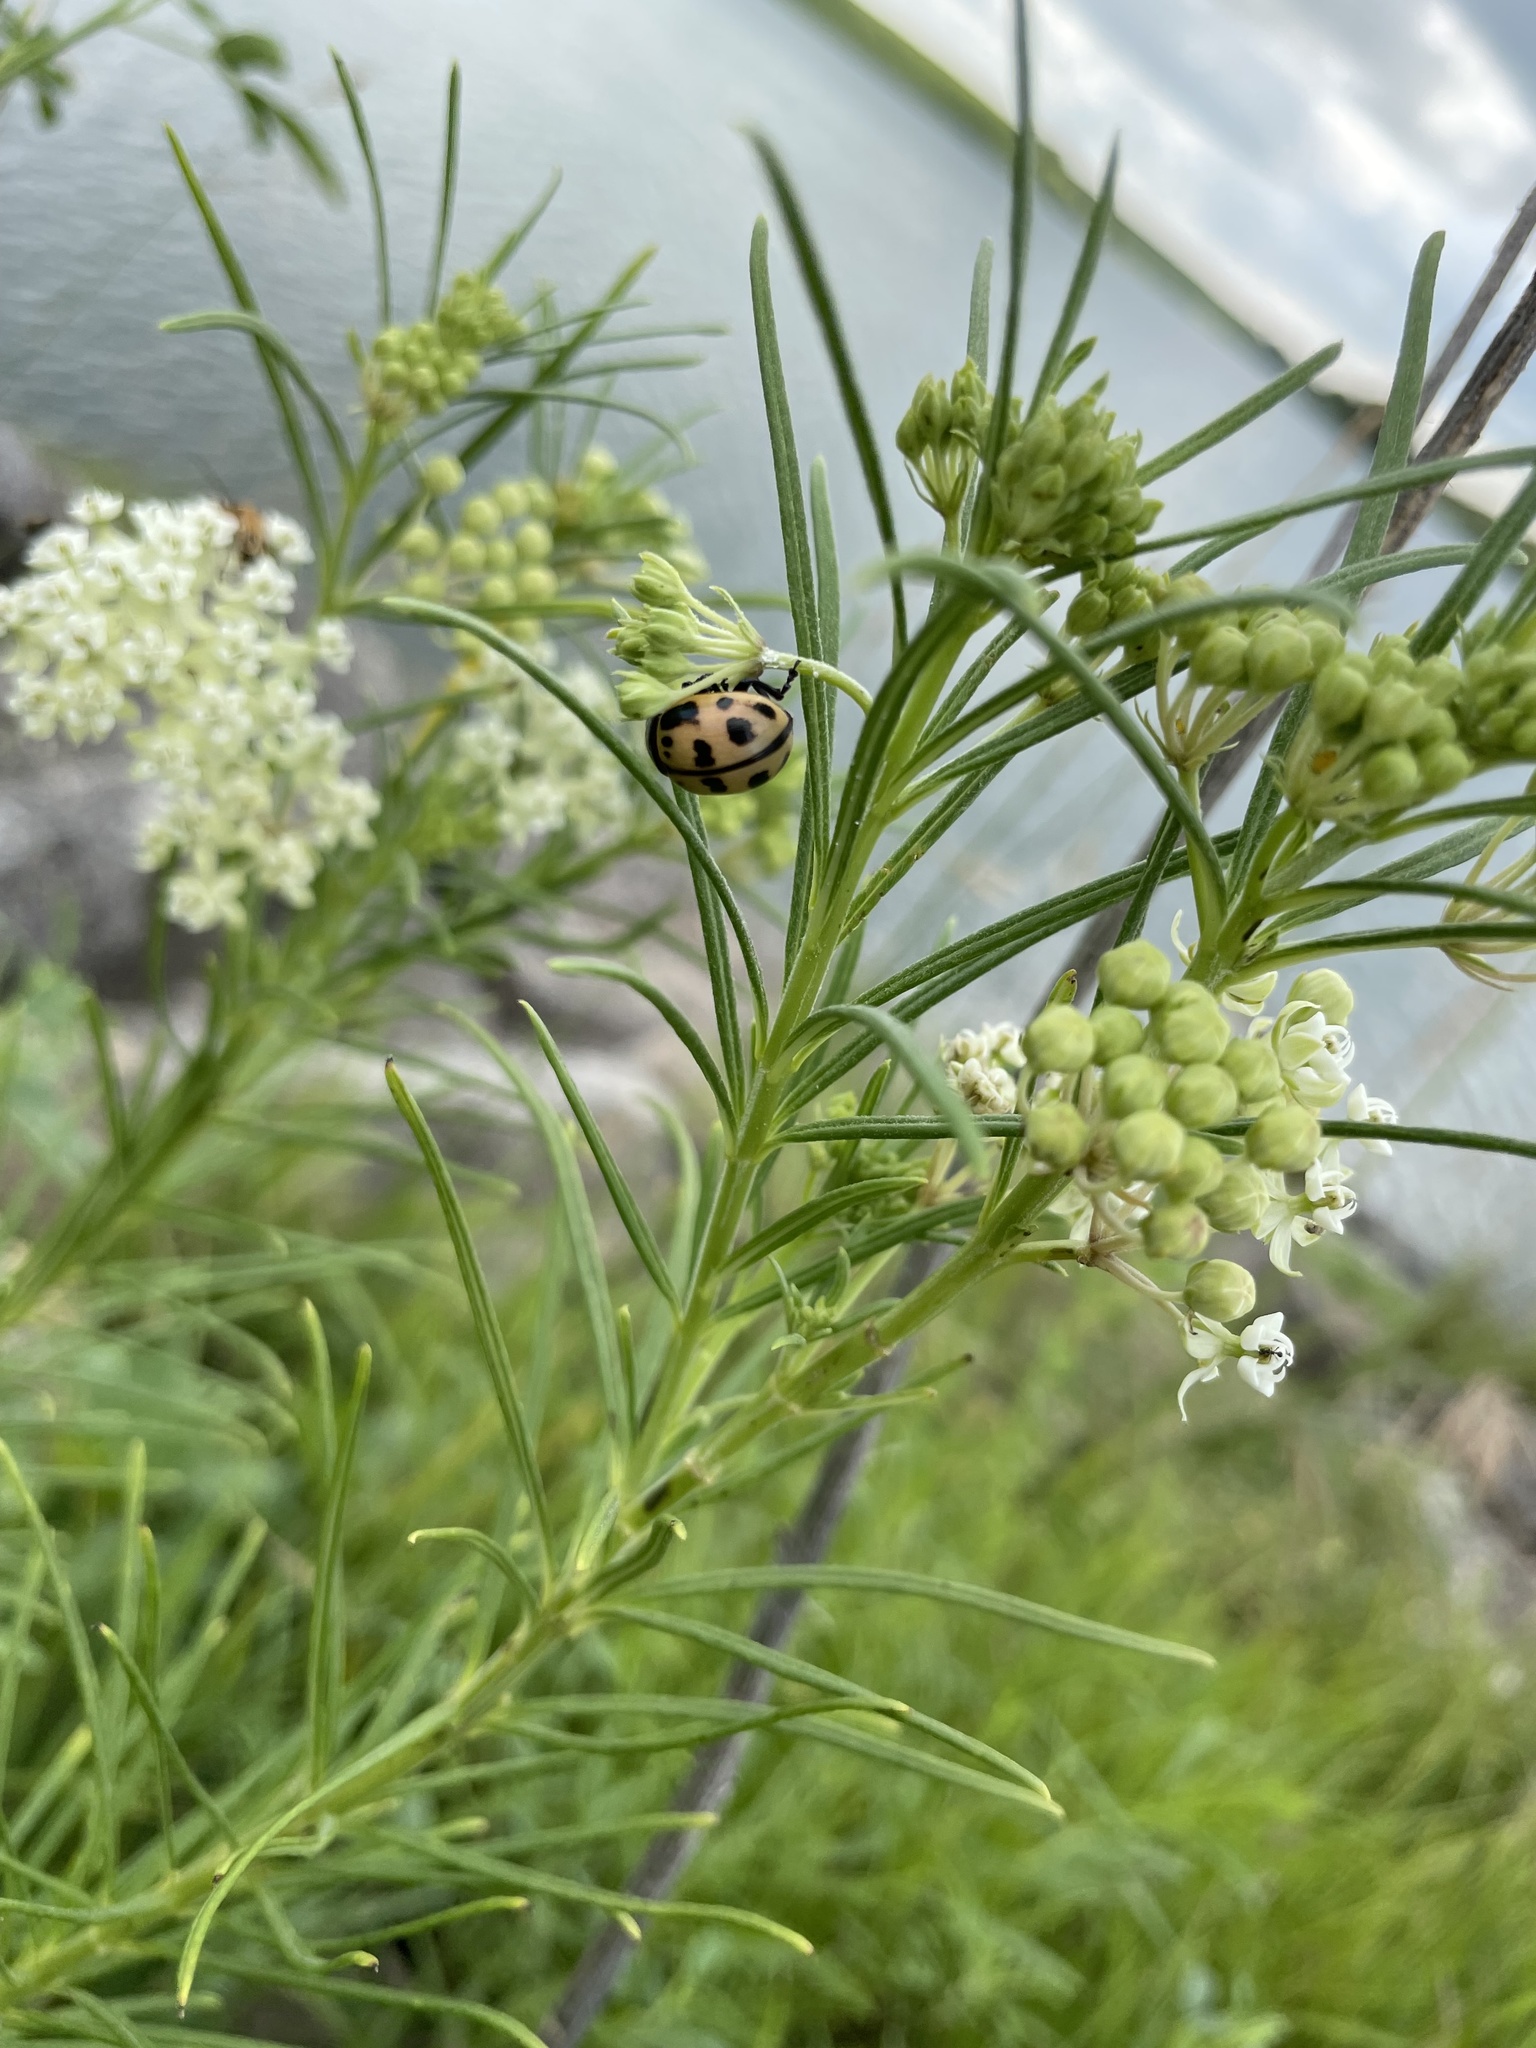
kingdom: Animalia
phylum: Arthropoda
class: Insecta
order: Coleoptera
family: Chrysomelidae
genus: Labidomera
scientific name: Labidomera clivicollis
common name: Swamp milkweed leaf beetle
